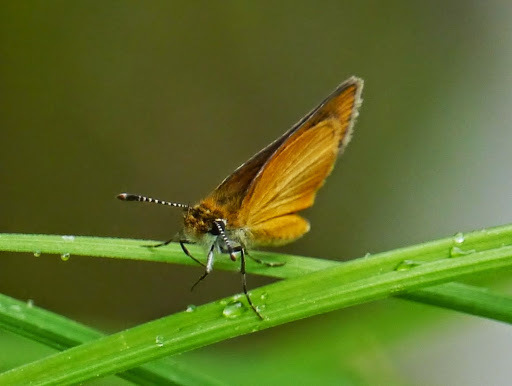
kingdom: Animalia
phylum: Arthropoda
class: Insecta
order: Lepidoptera
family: Hesperiidae
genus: Ancyloxypha
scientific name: Ancyloxypha numitor
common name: Least skipper
